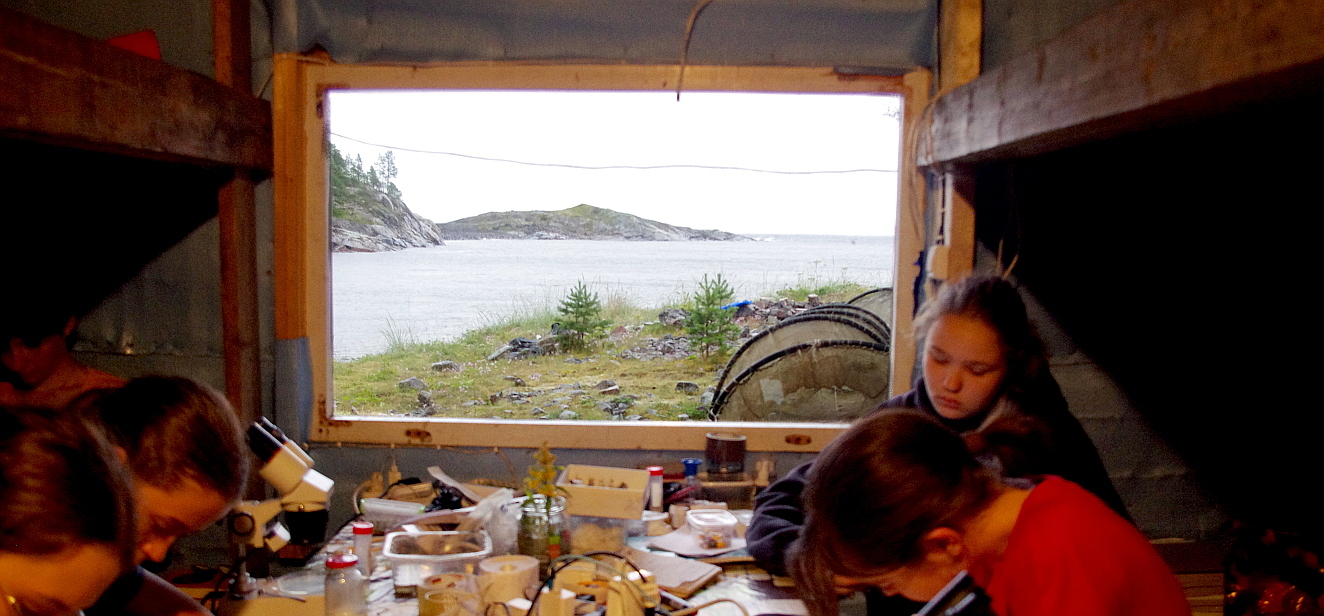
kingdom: Plantae
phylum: Tracheophyta
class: Pinopsida
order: Pinales
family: Pinaceae
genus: Pinus
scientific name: Pinus sylvestris
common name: Scots pine
